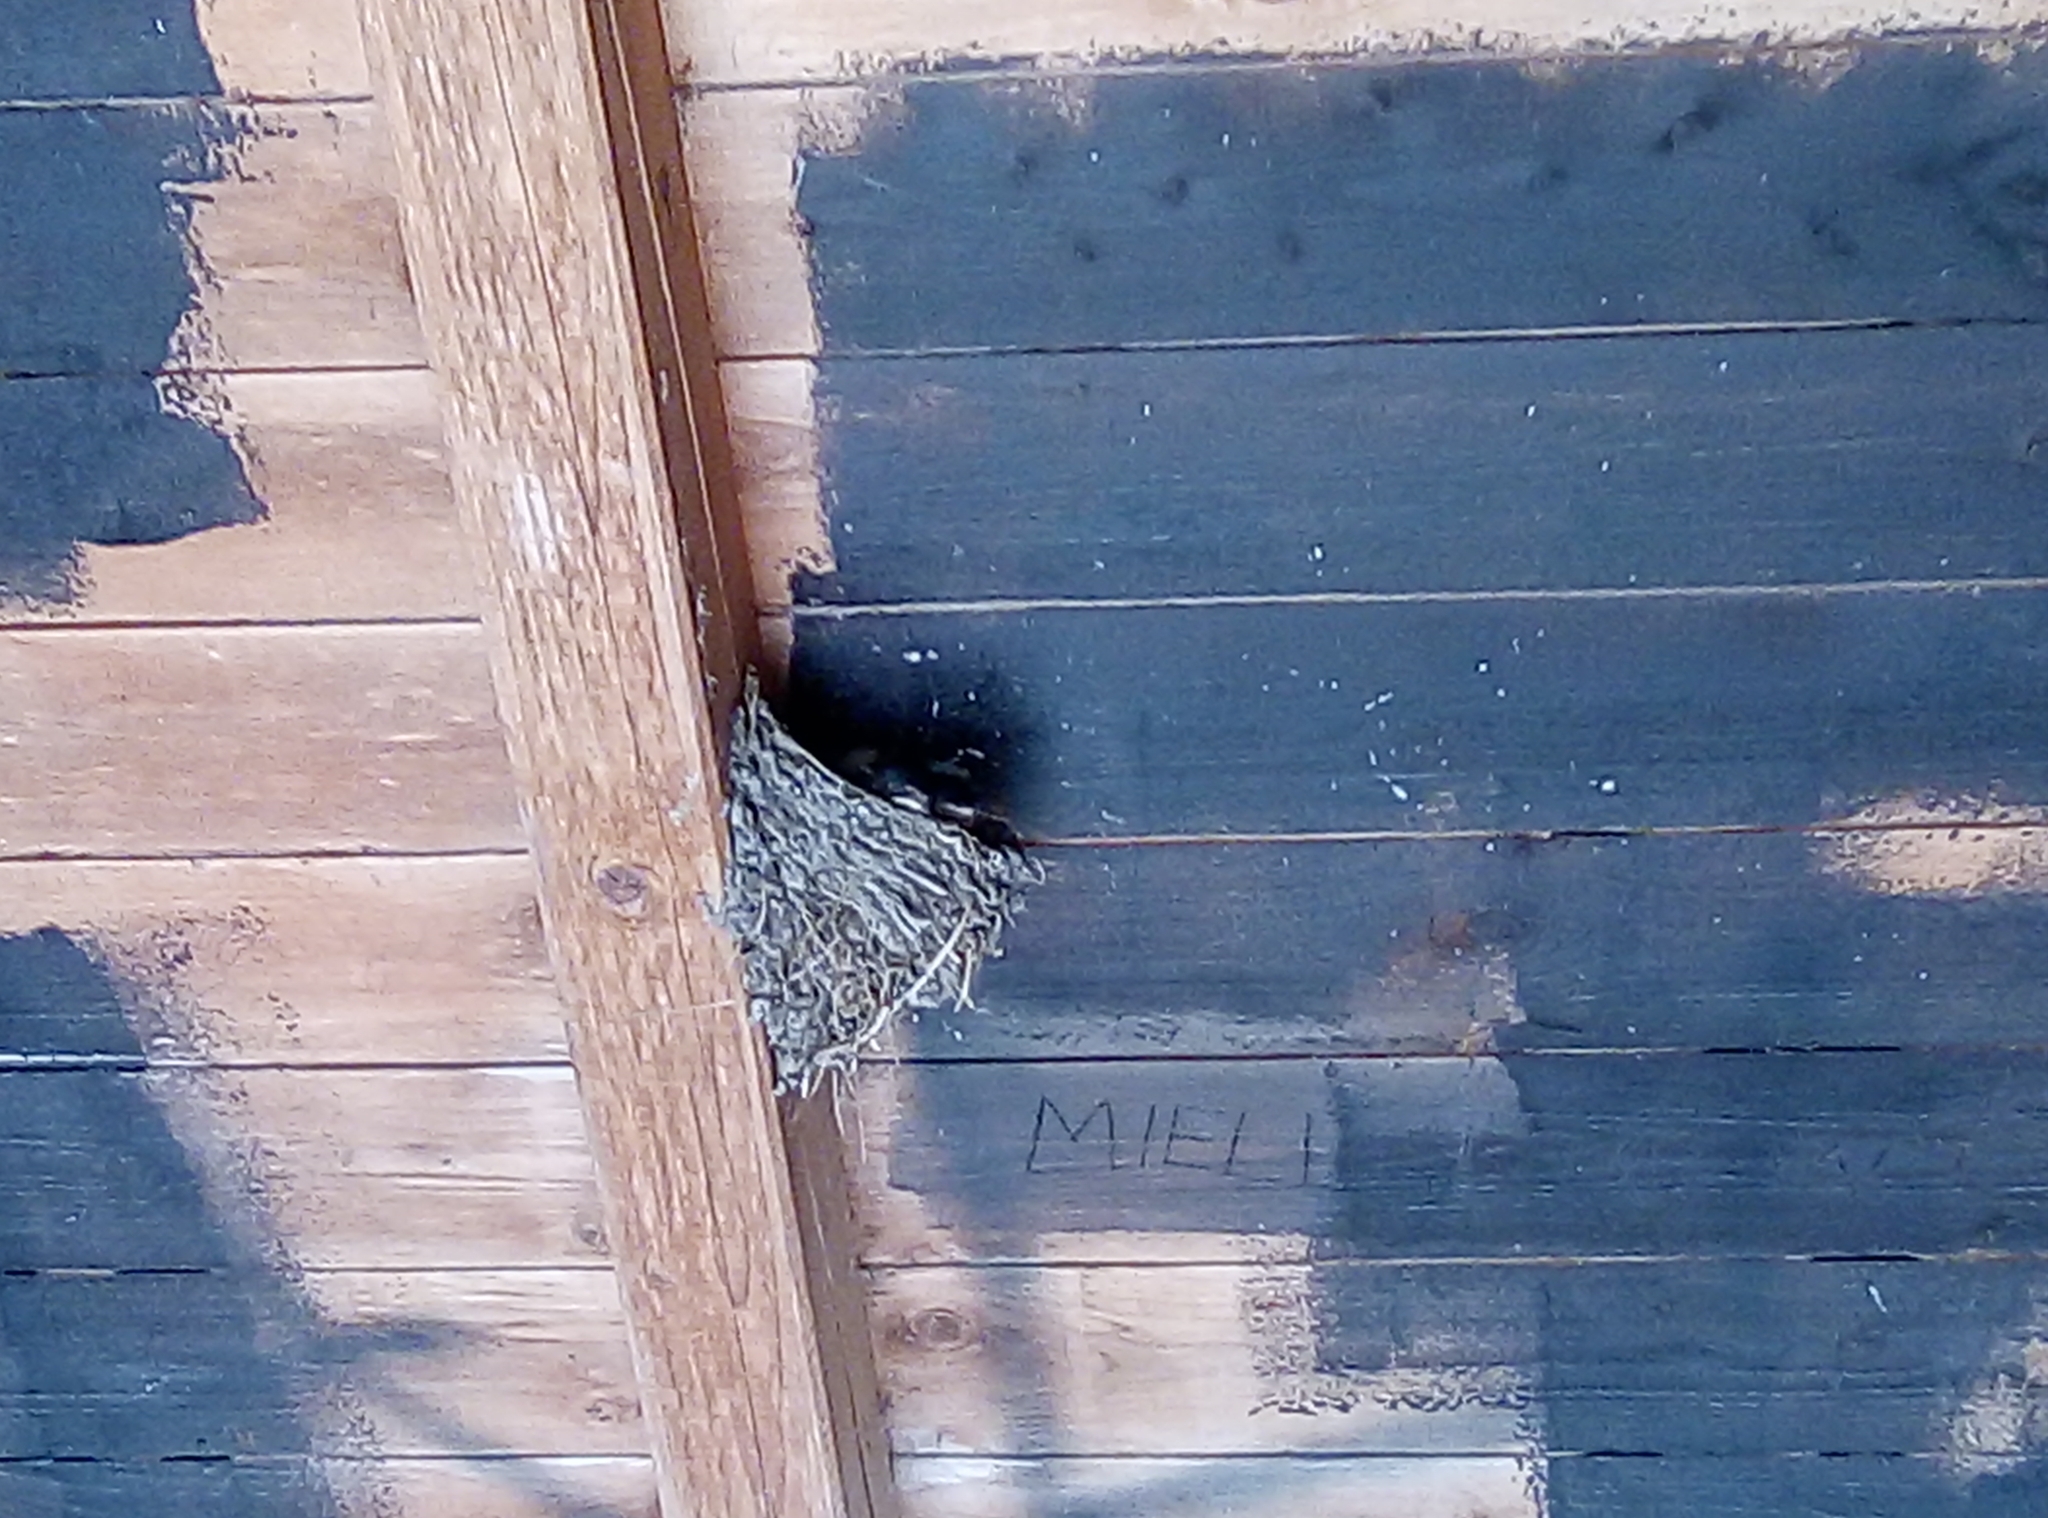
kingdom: Animalia
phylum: Chordata
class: Aves
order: Passeriformes
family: Hirundinidae
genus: Delichon
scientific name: Delichon urbicum
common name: Common house martin
